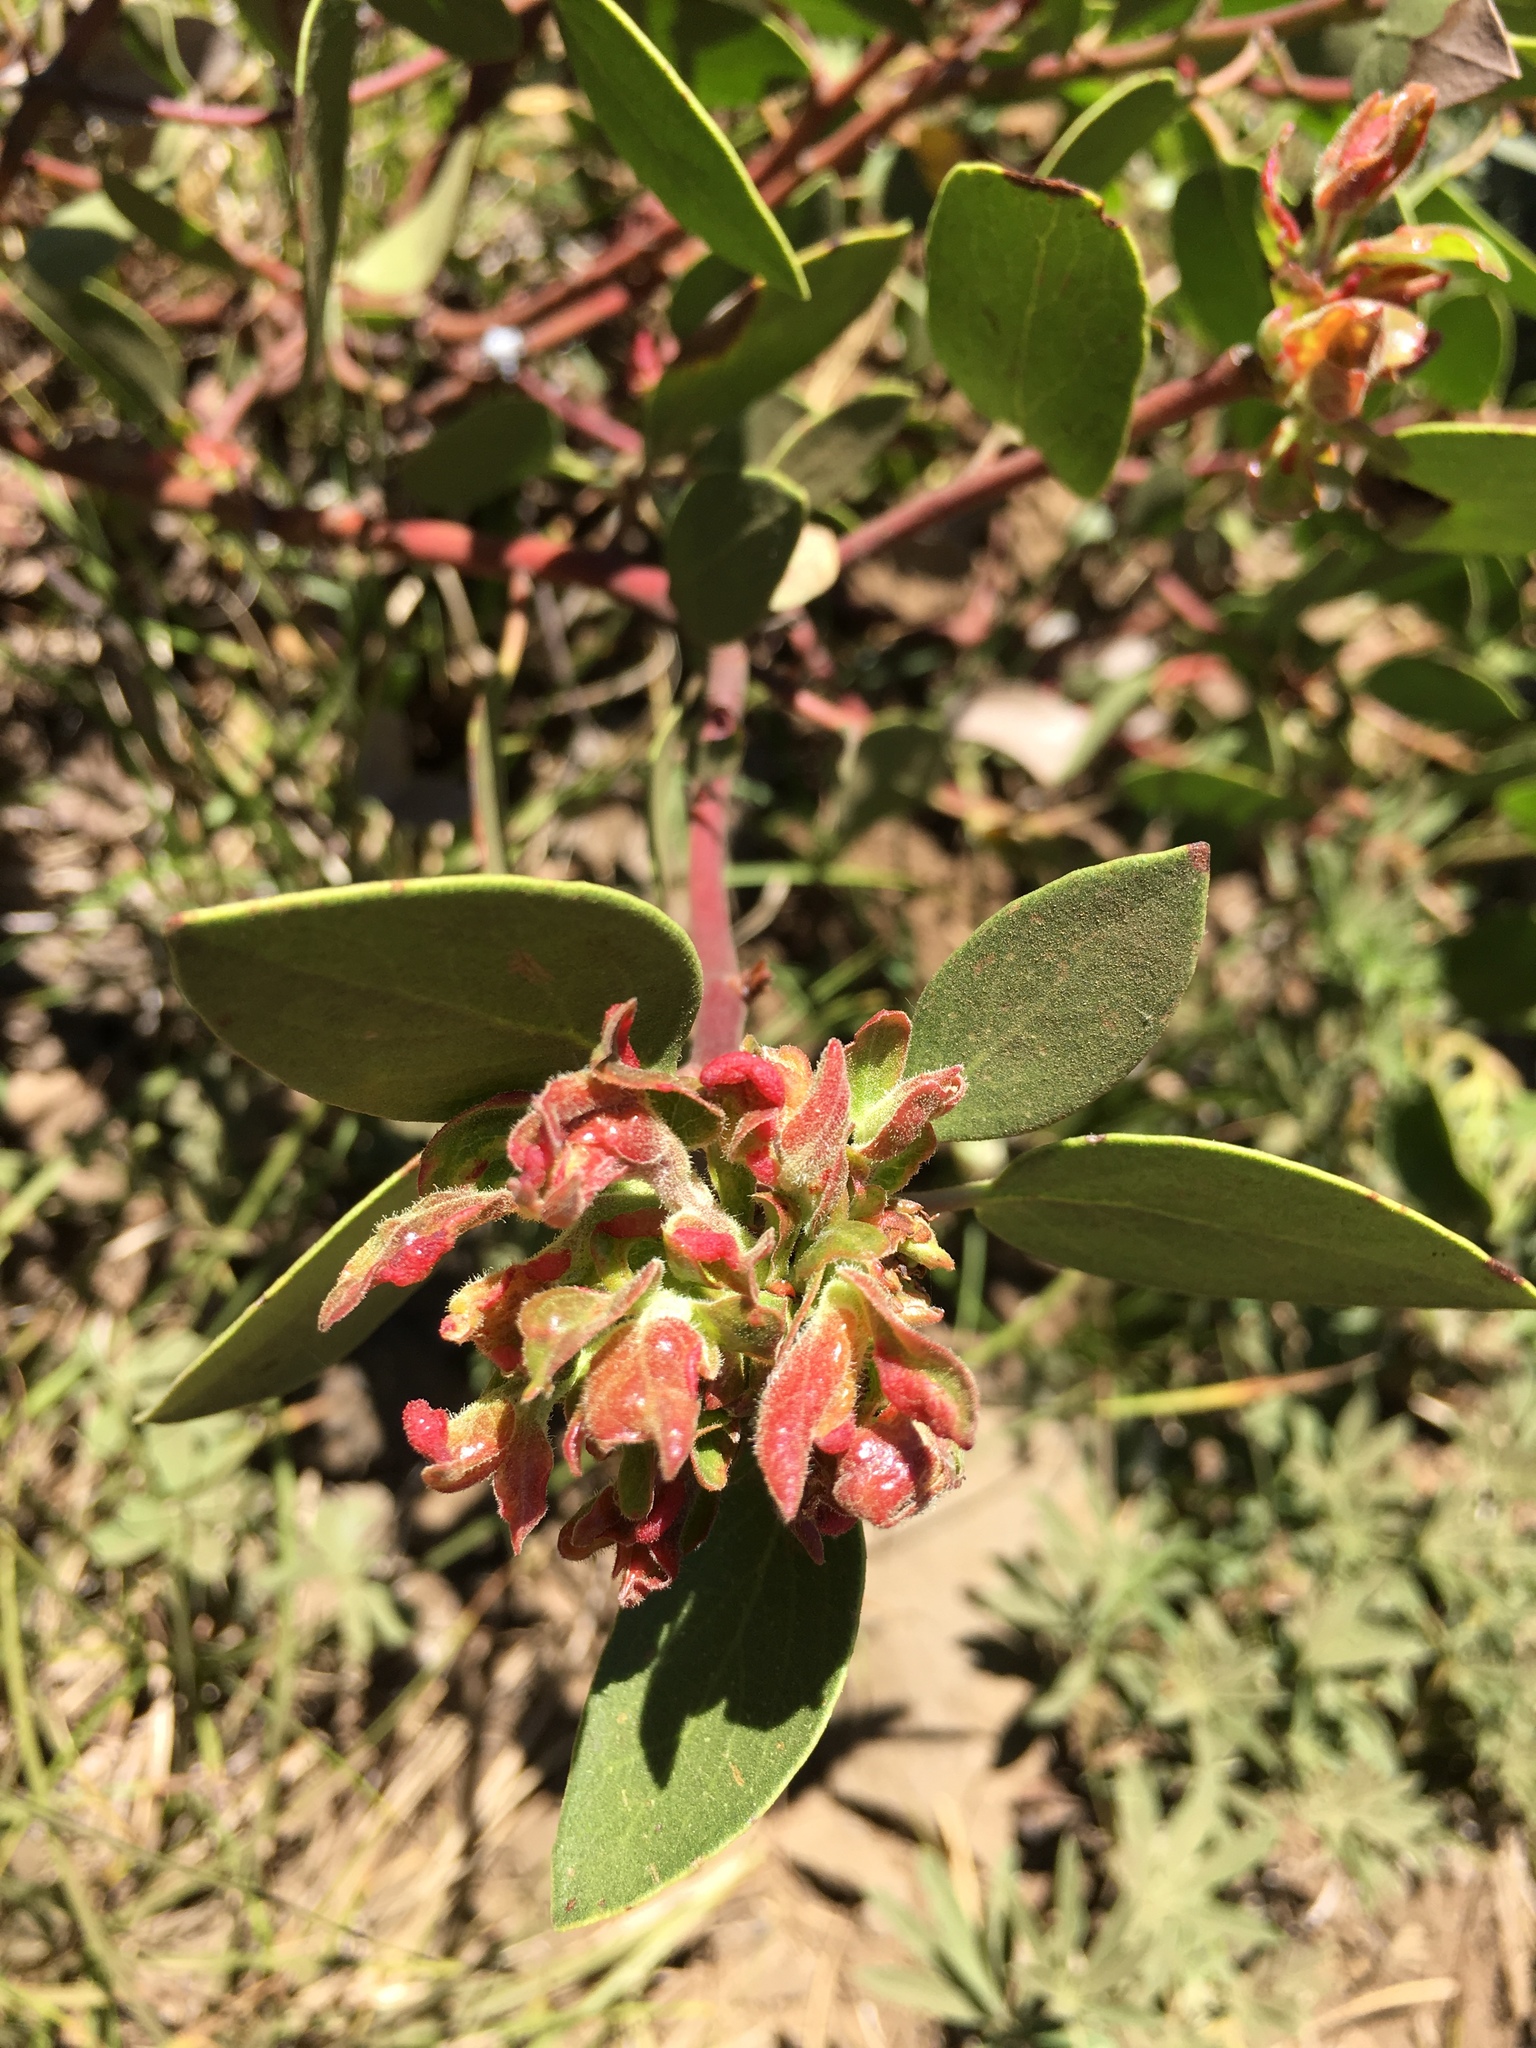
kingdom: Plantae
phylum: Tracheophyta
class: Magnoliopsida
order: Ericales
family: Ericaceae
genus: Arctostaphylos
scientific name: Arctostaphylos patula
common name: Green-leaf manzanita
